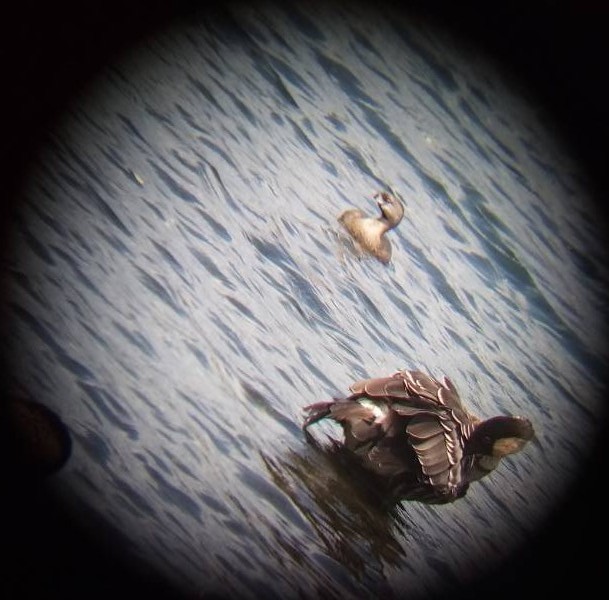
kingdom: Animalia
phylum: Chordata
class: Aves
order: Podicipediformes
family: Podicipedidae
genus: Podilymbus
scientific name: Podilymbus podiceps
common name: Pied-billed grebe
